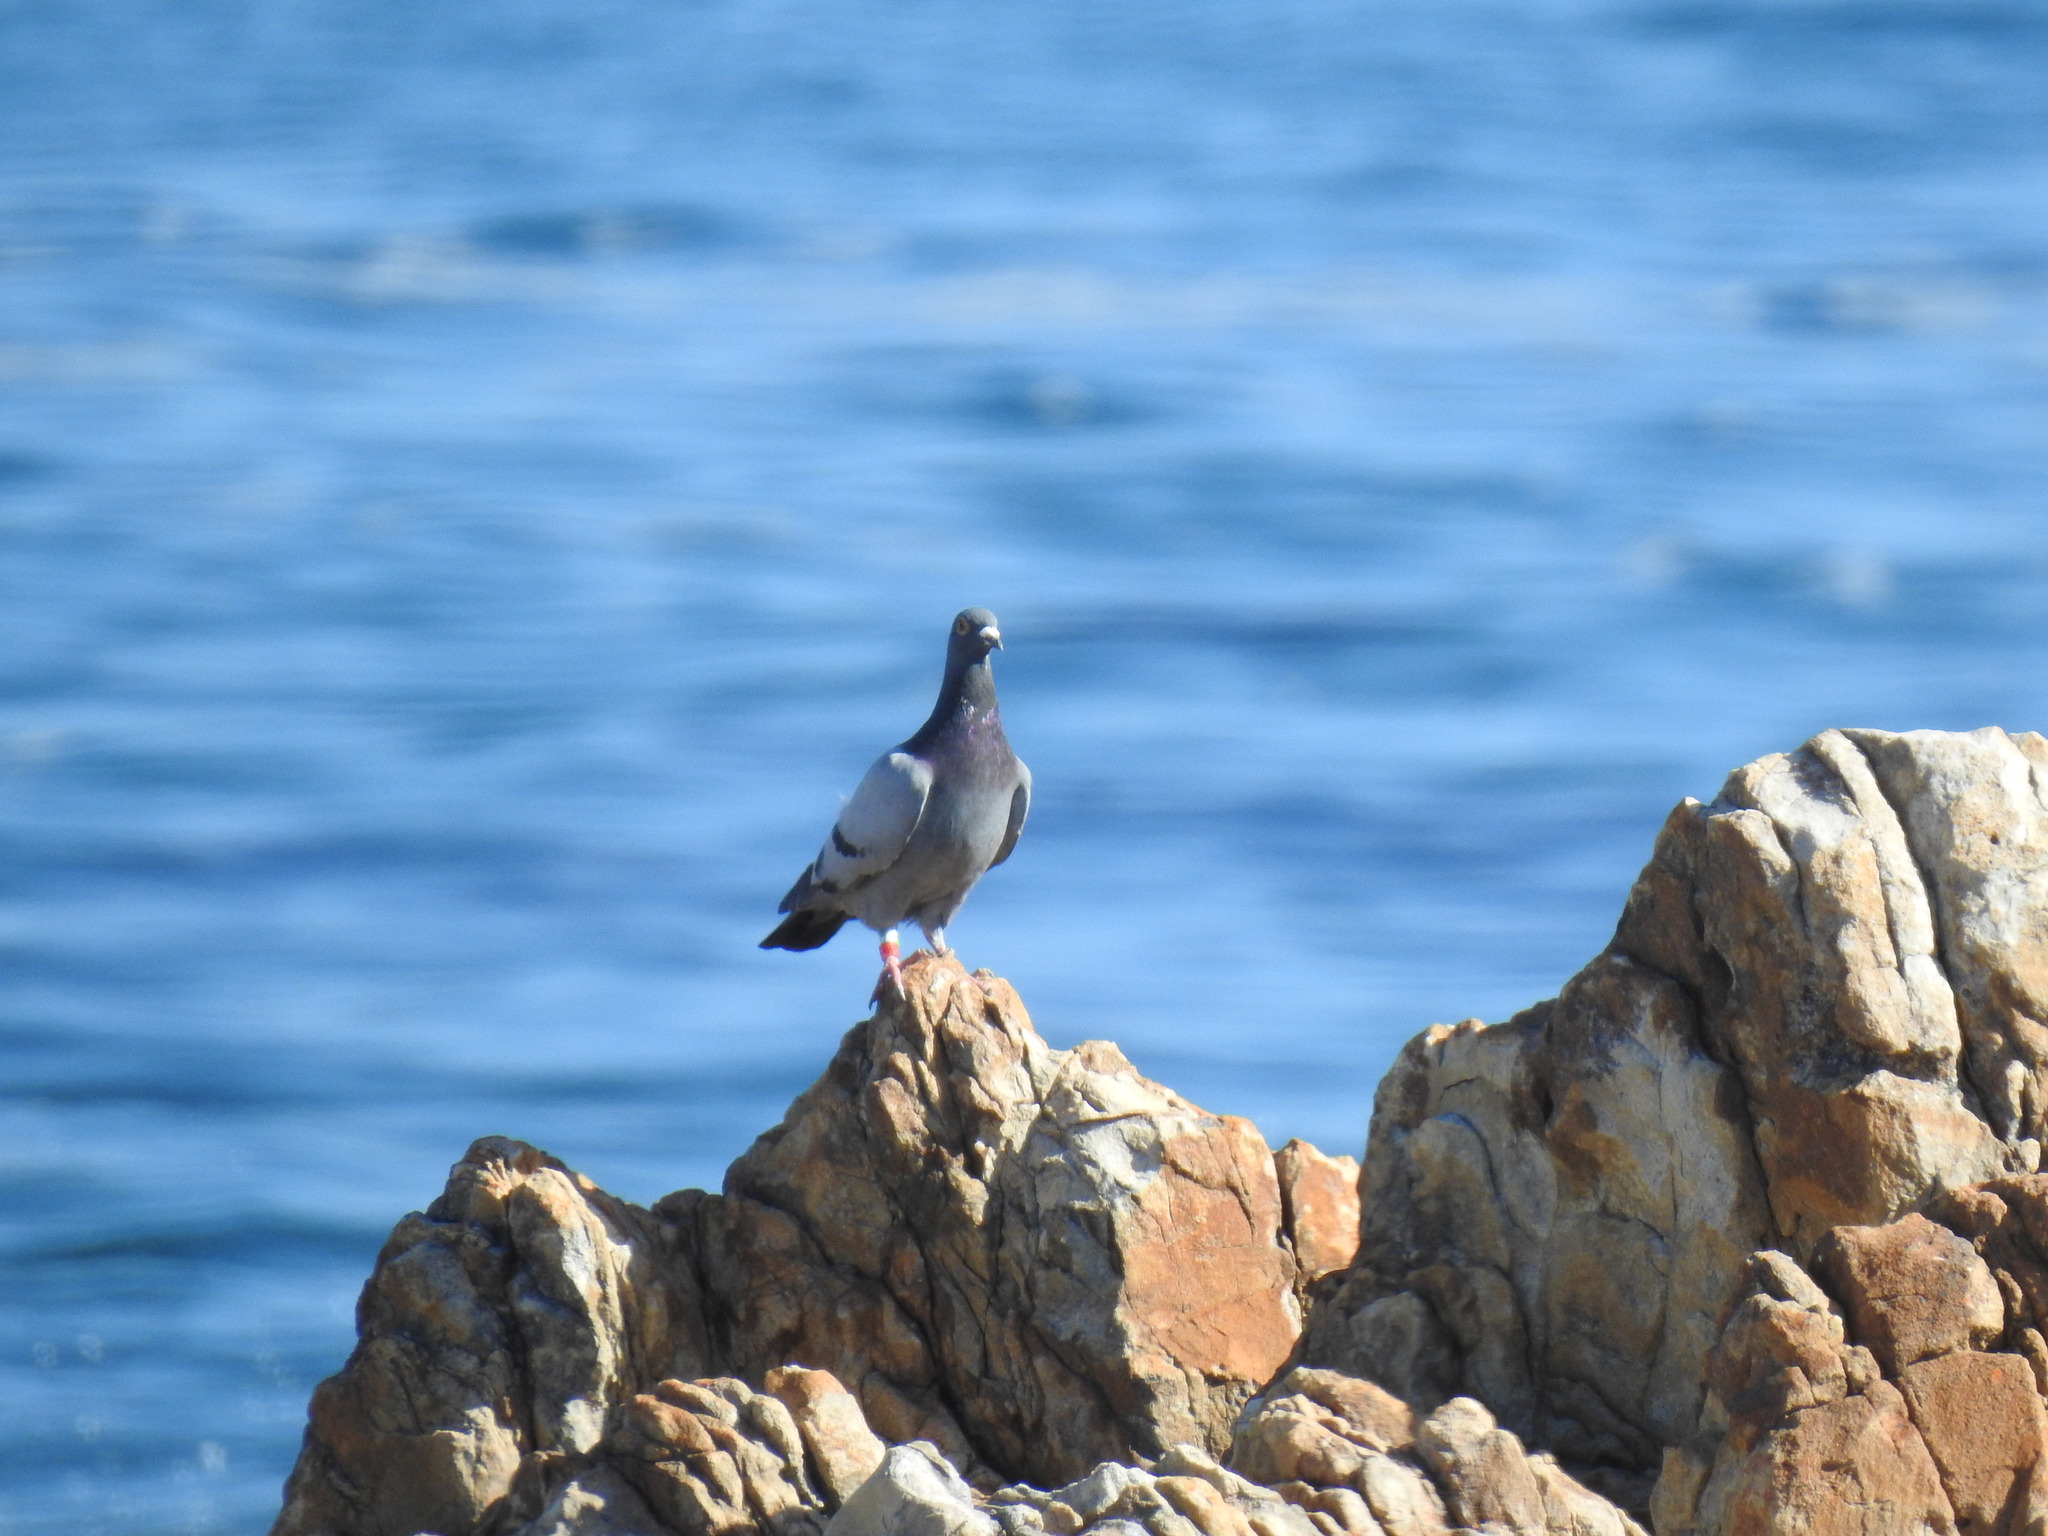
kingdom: Animalia
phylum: Chordata
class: Aves
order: Columbiformes
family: Columbidae
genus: Columba
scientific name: Columba livia
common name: Rock pigeon
